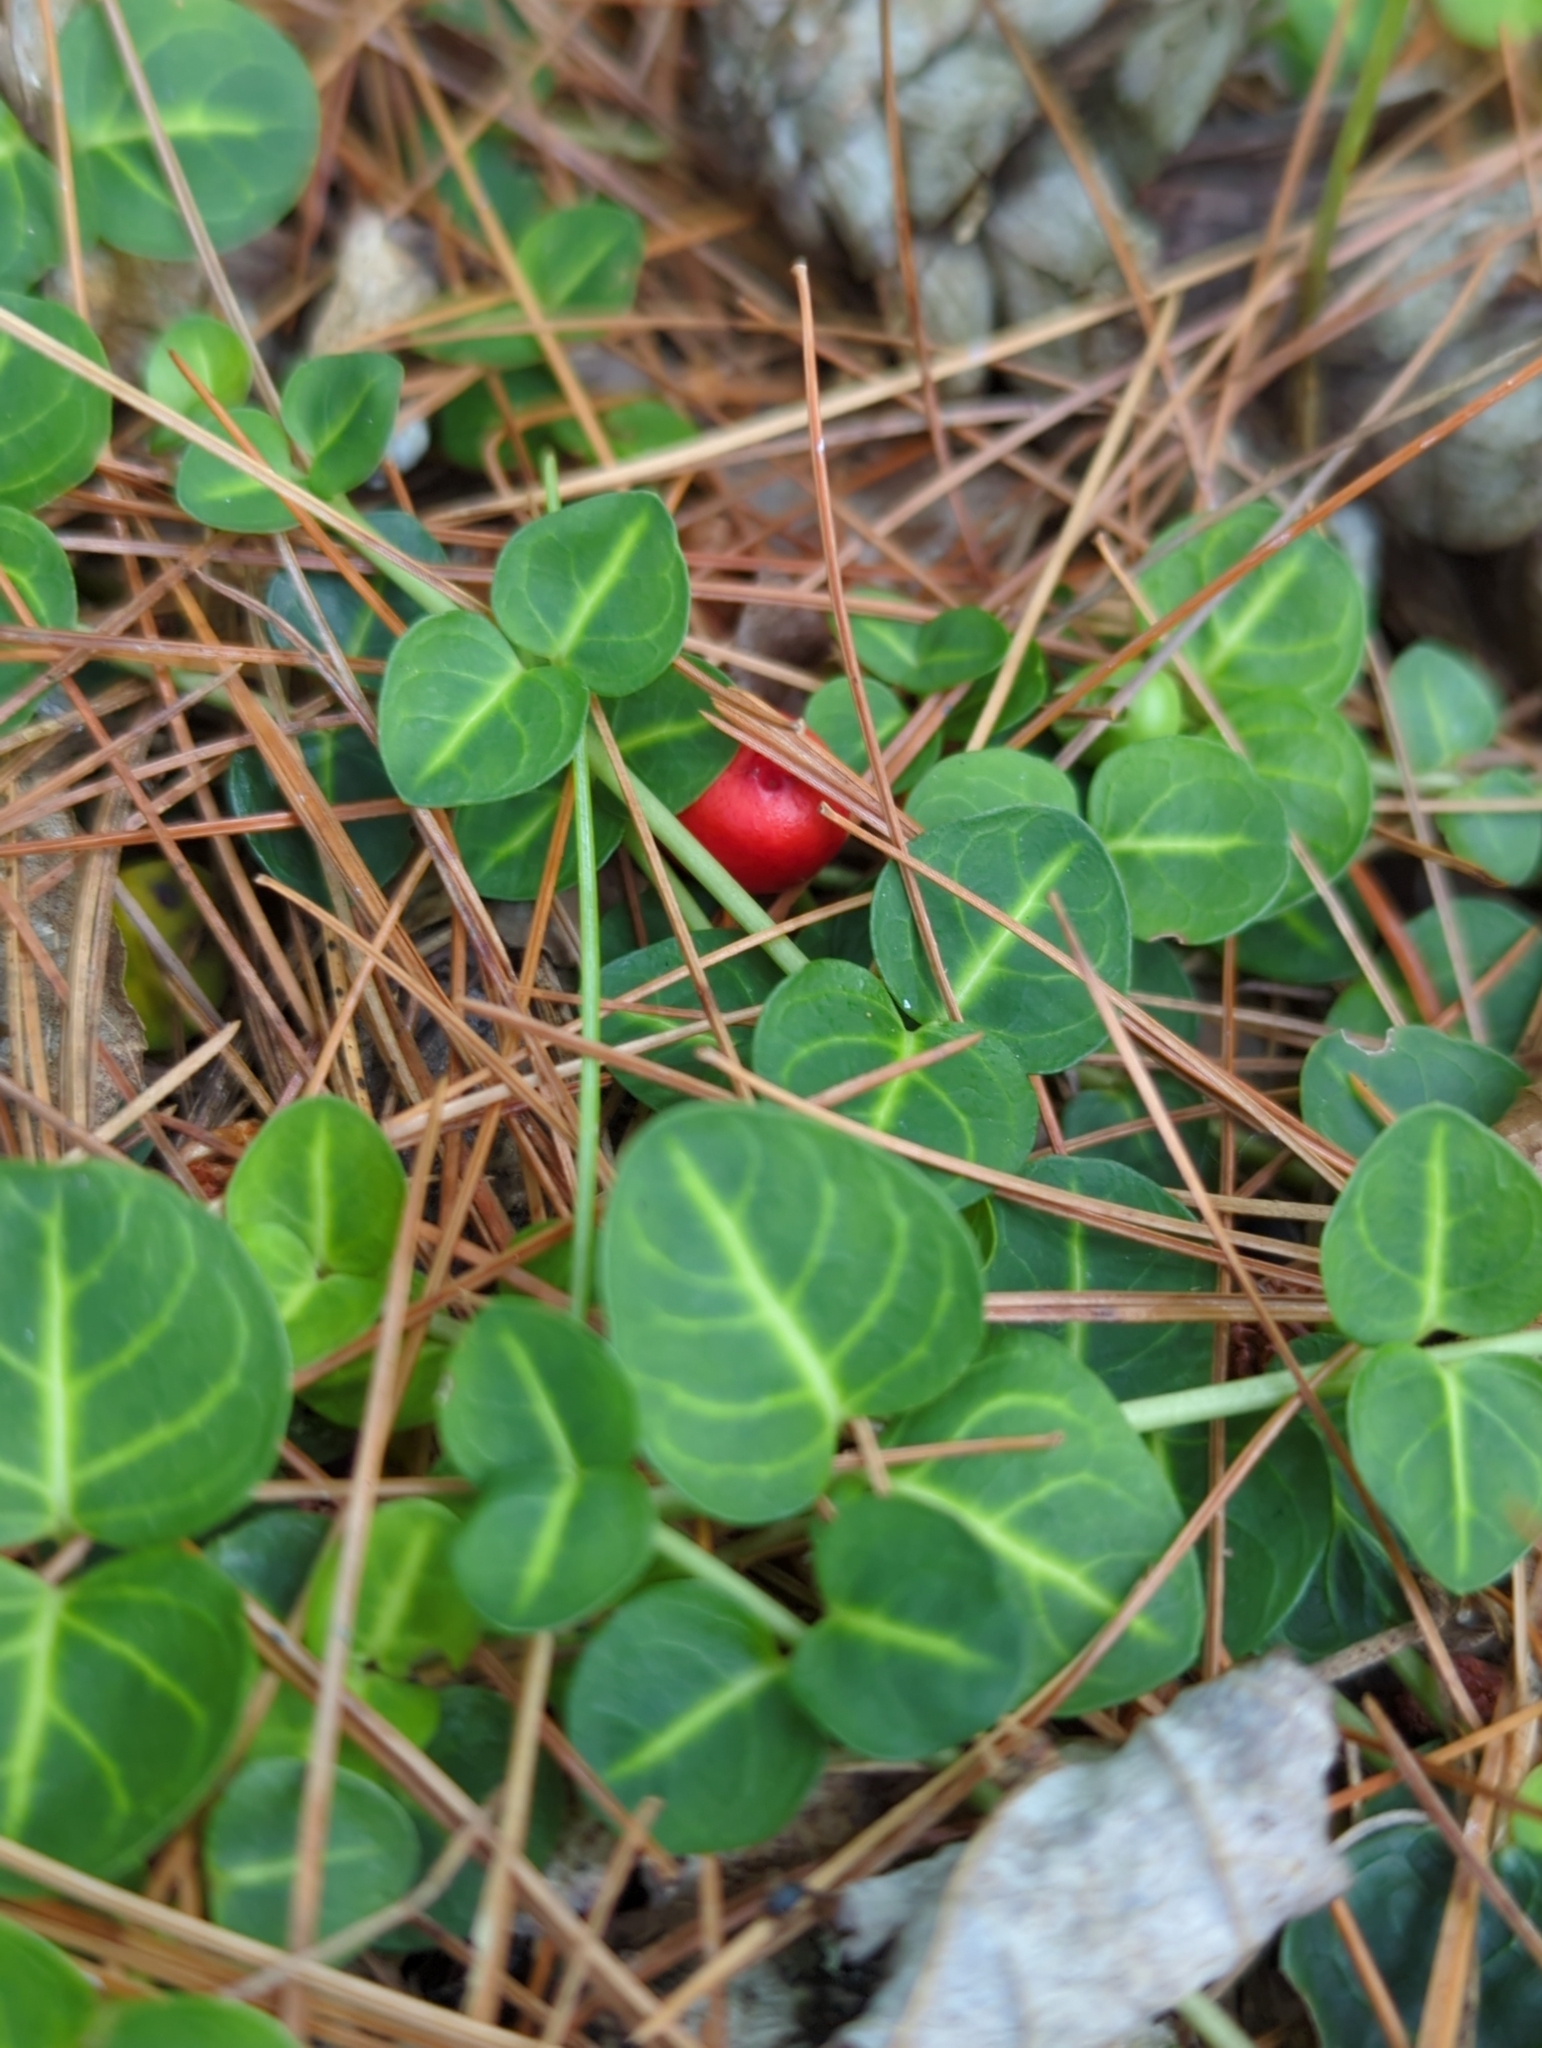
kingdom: Plantae
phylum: Tracheophyta
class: Magnoliopsida
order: Gentianales
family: Rubiaceae
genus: Mitchella
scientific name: Mitchella repens
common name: Partridge-berry
